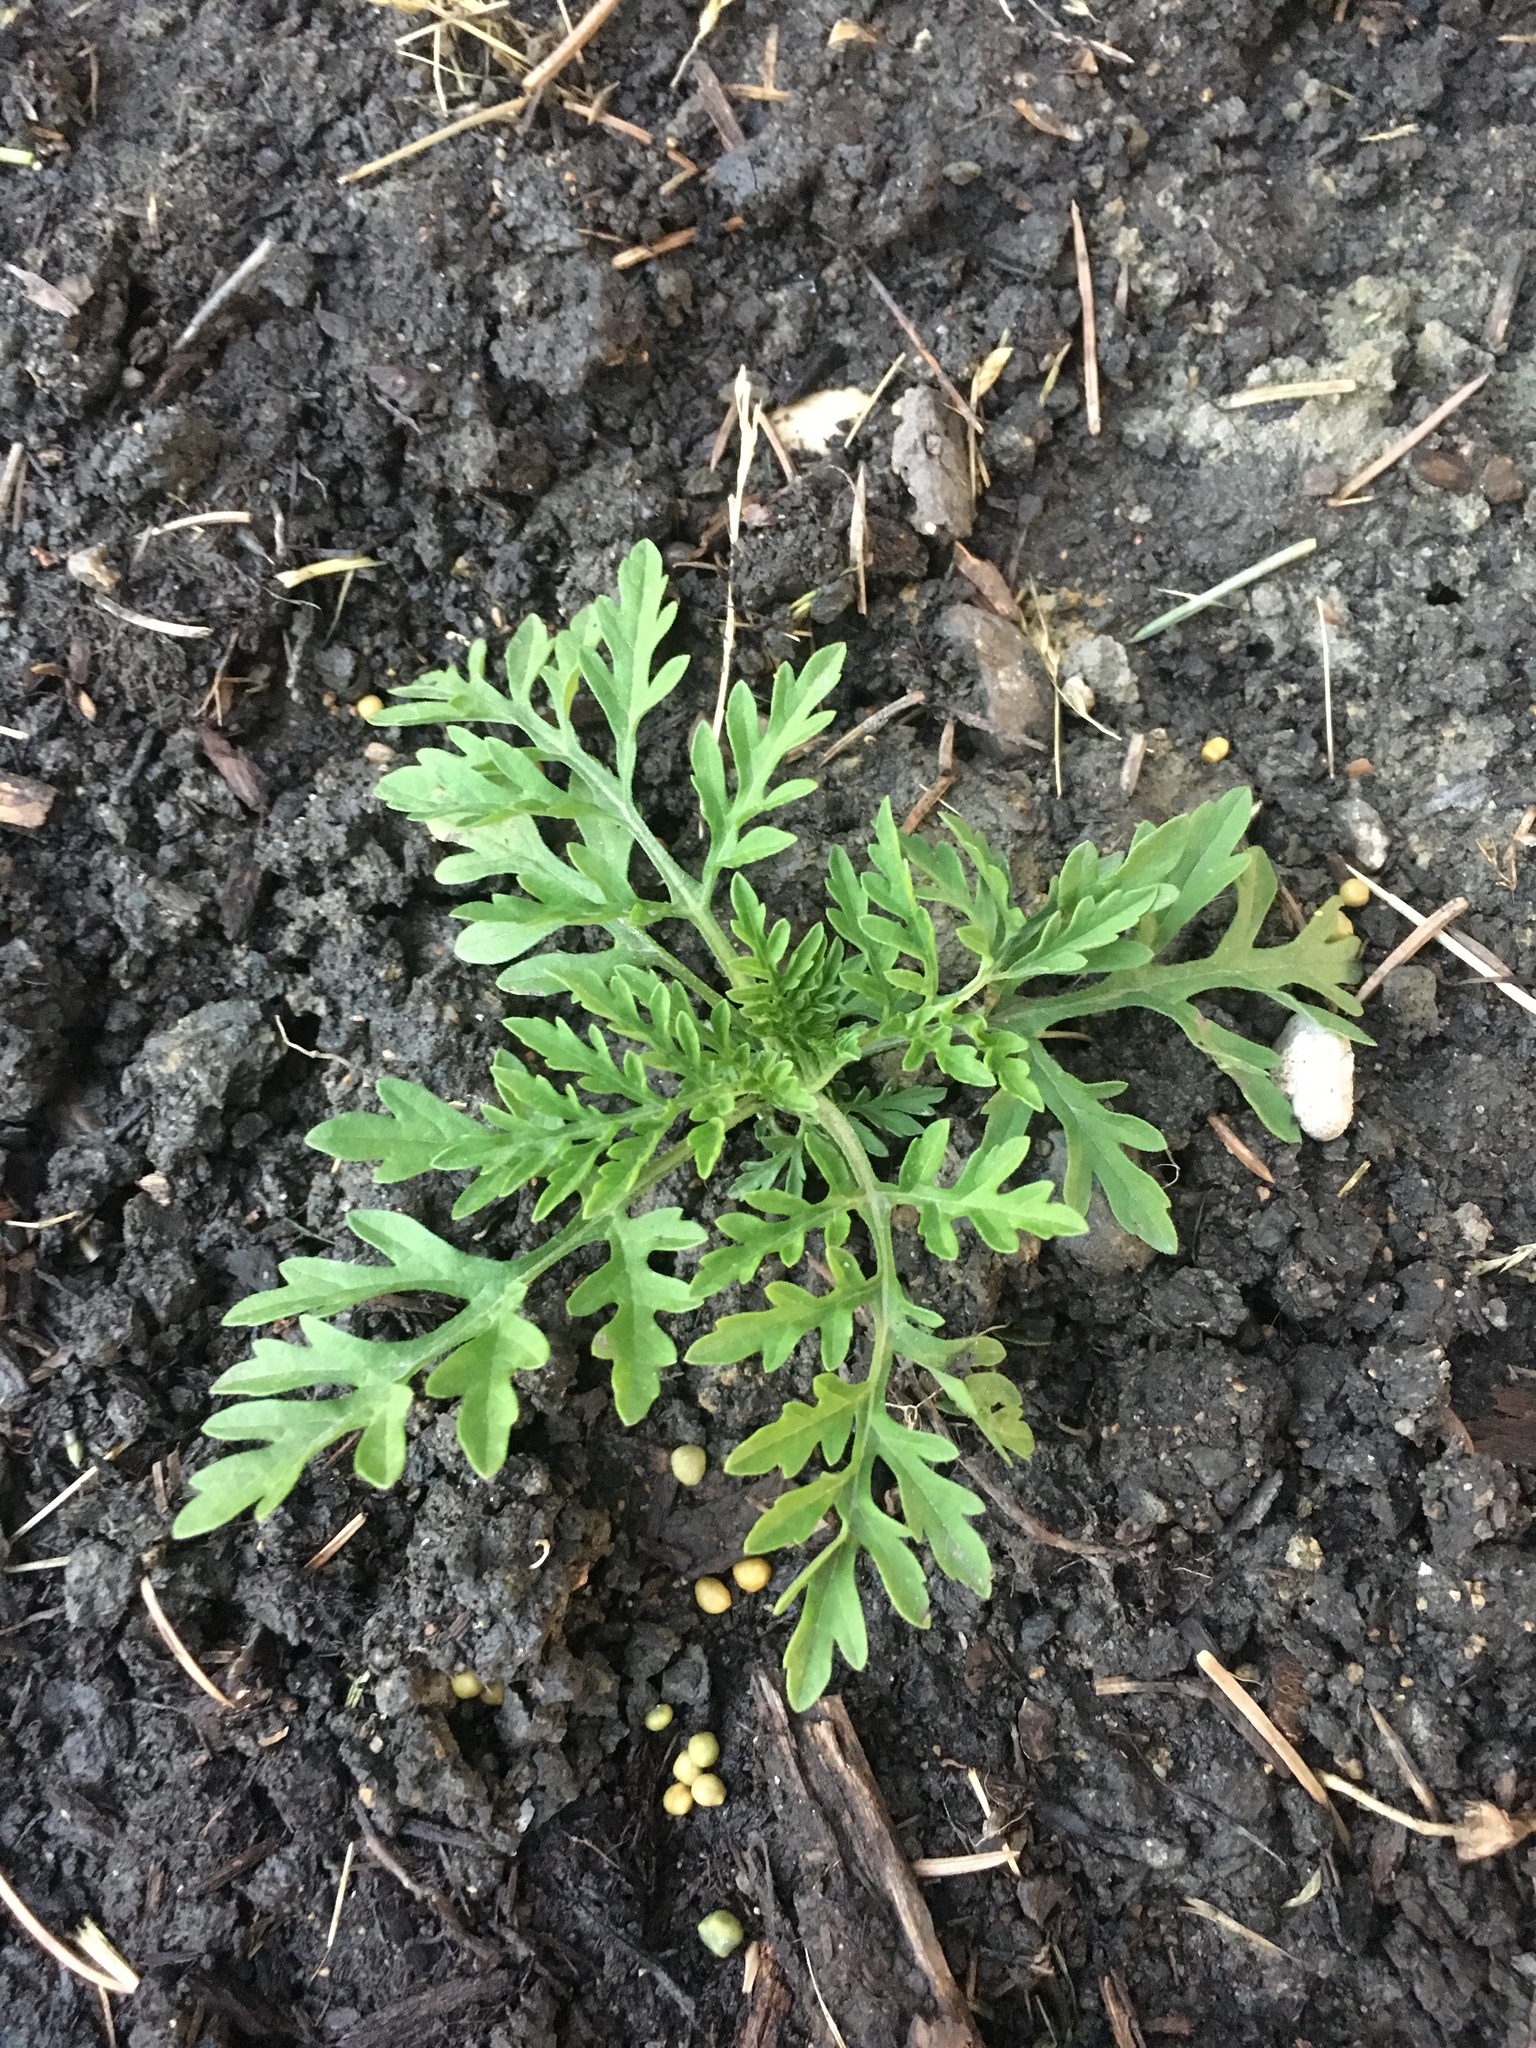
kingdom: Plantae
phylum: Tracheophyta
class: Magnoliopsida
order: Asterales
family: Asteraceae
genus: Ambrosia
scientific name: Ambrosia artemisiifolia
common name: Annual ragweed
